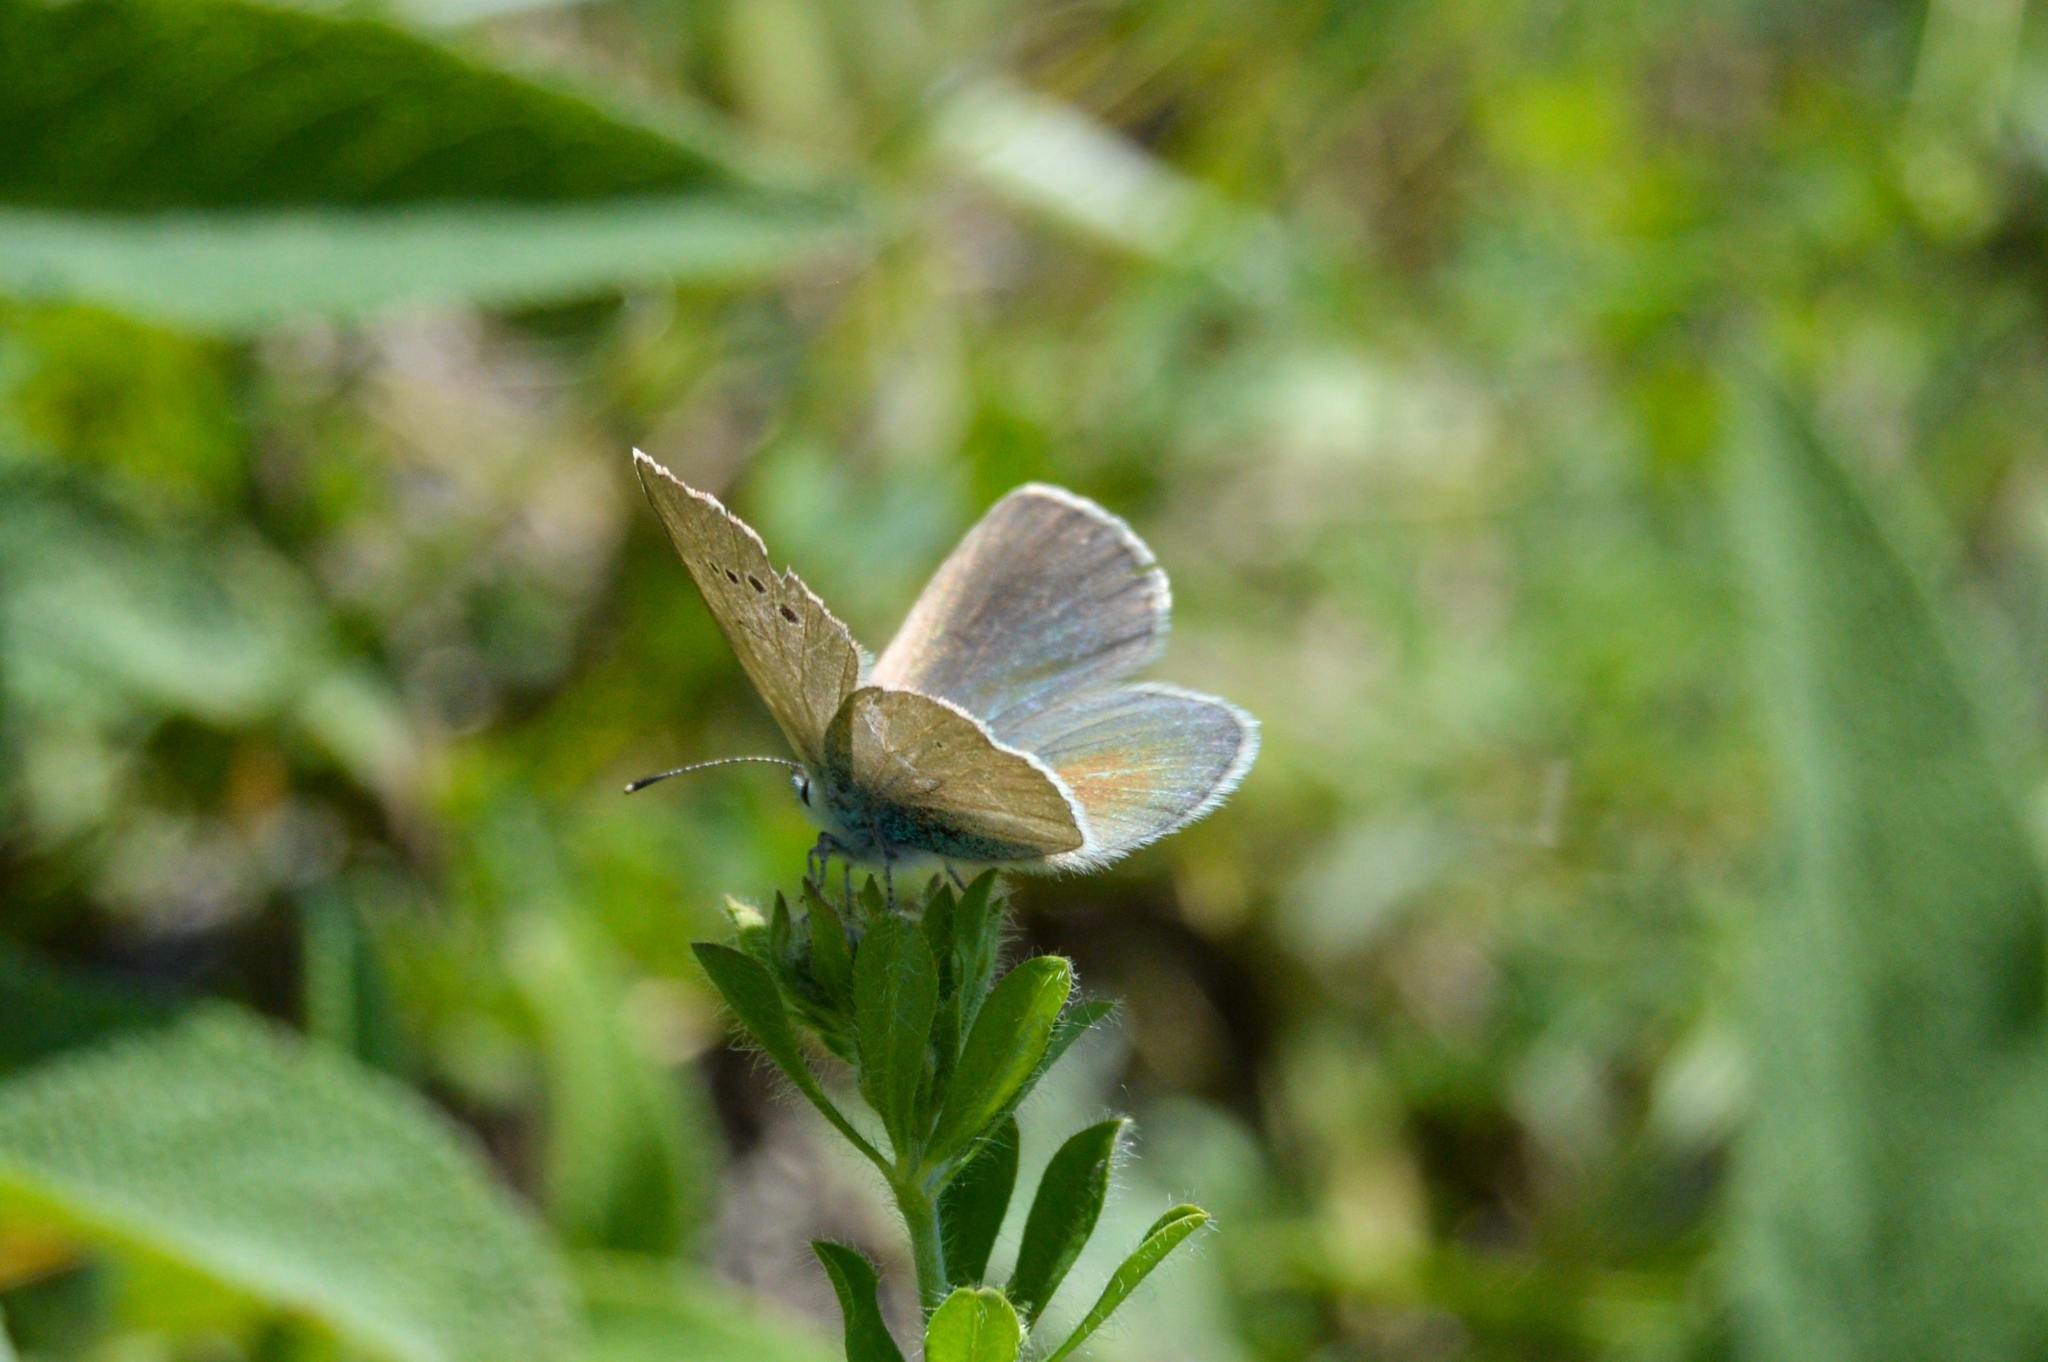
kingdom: Animalia
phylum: Arthropoda
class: Insecta
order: Lepidoptera
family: Lycaenidae
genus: Glaucopsyche
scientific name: Glaucopsyche alexis
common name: Green-underside blue
